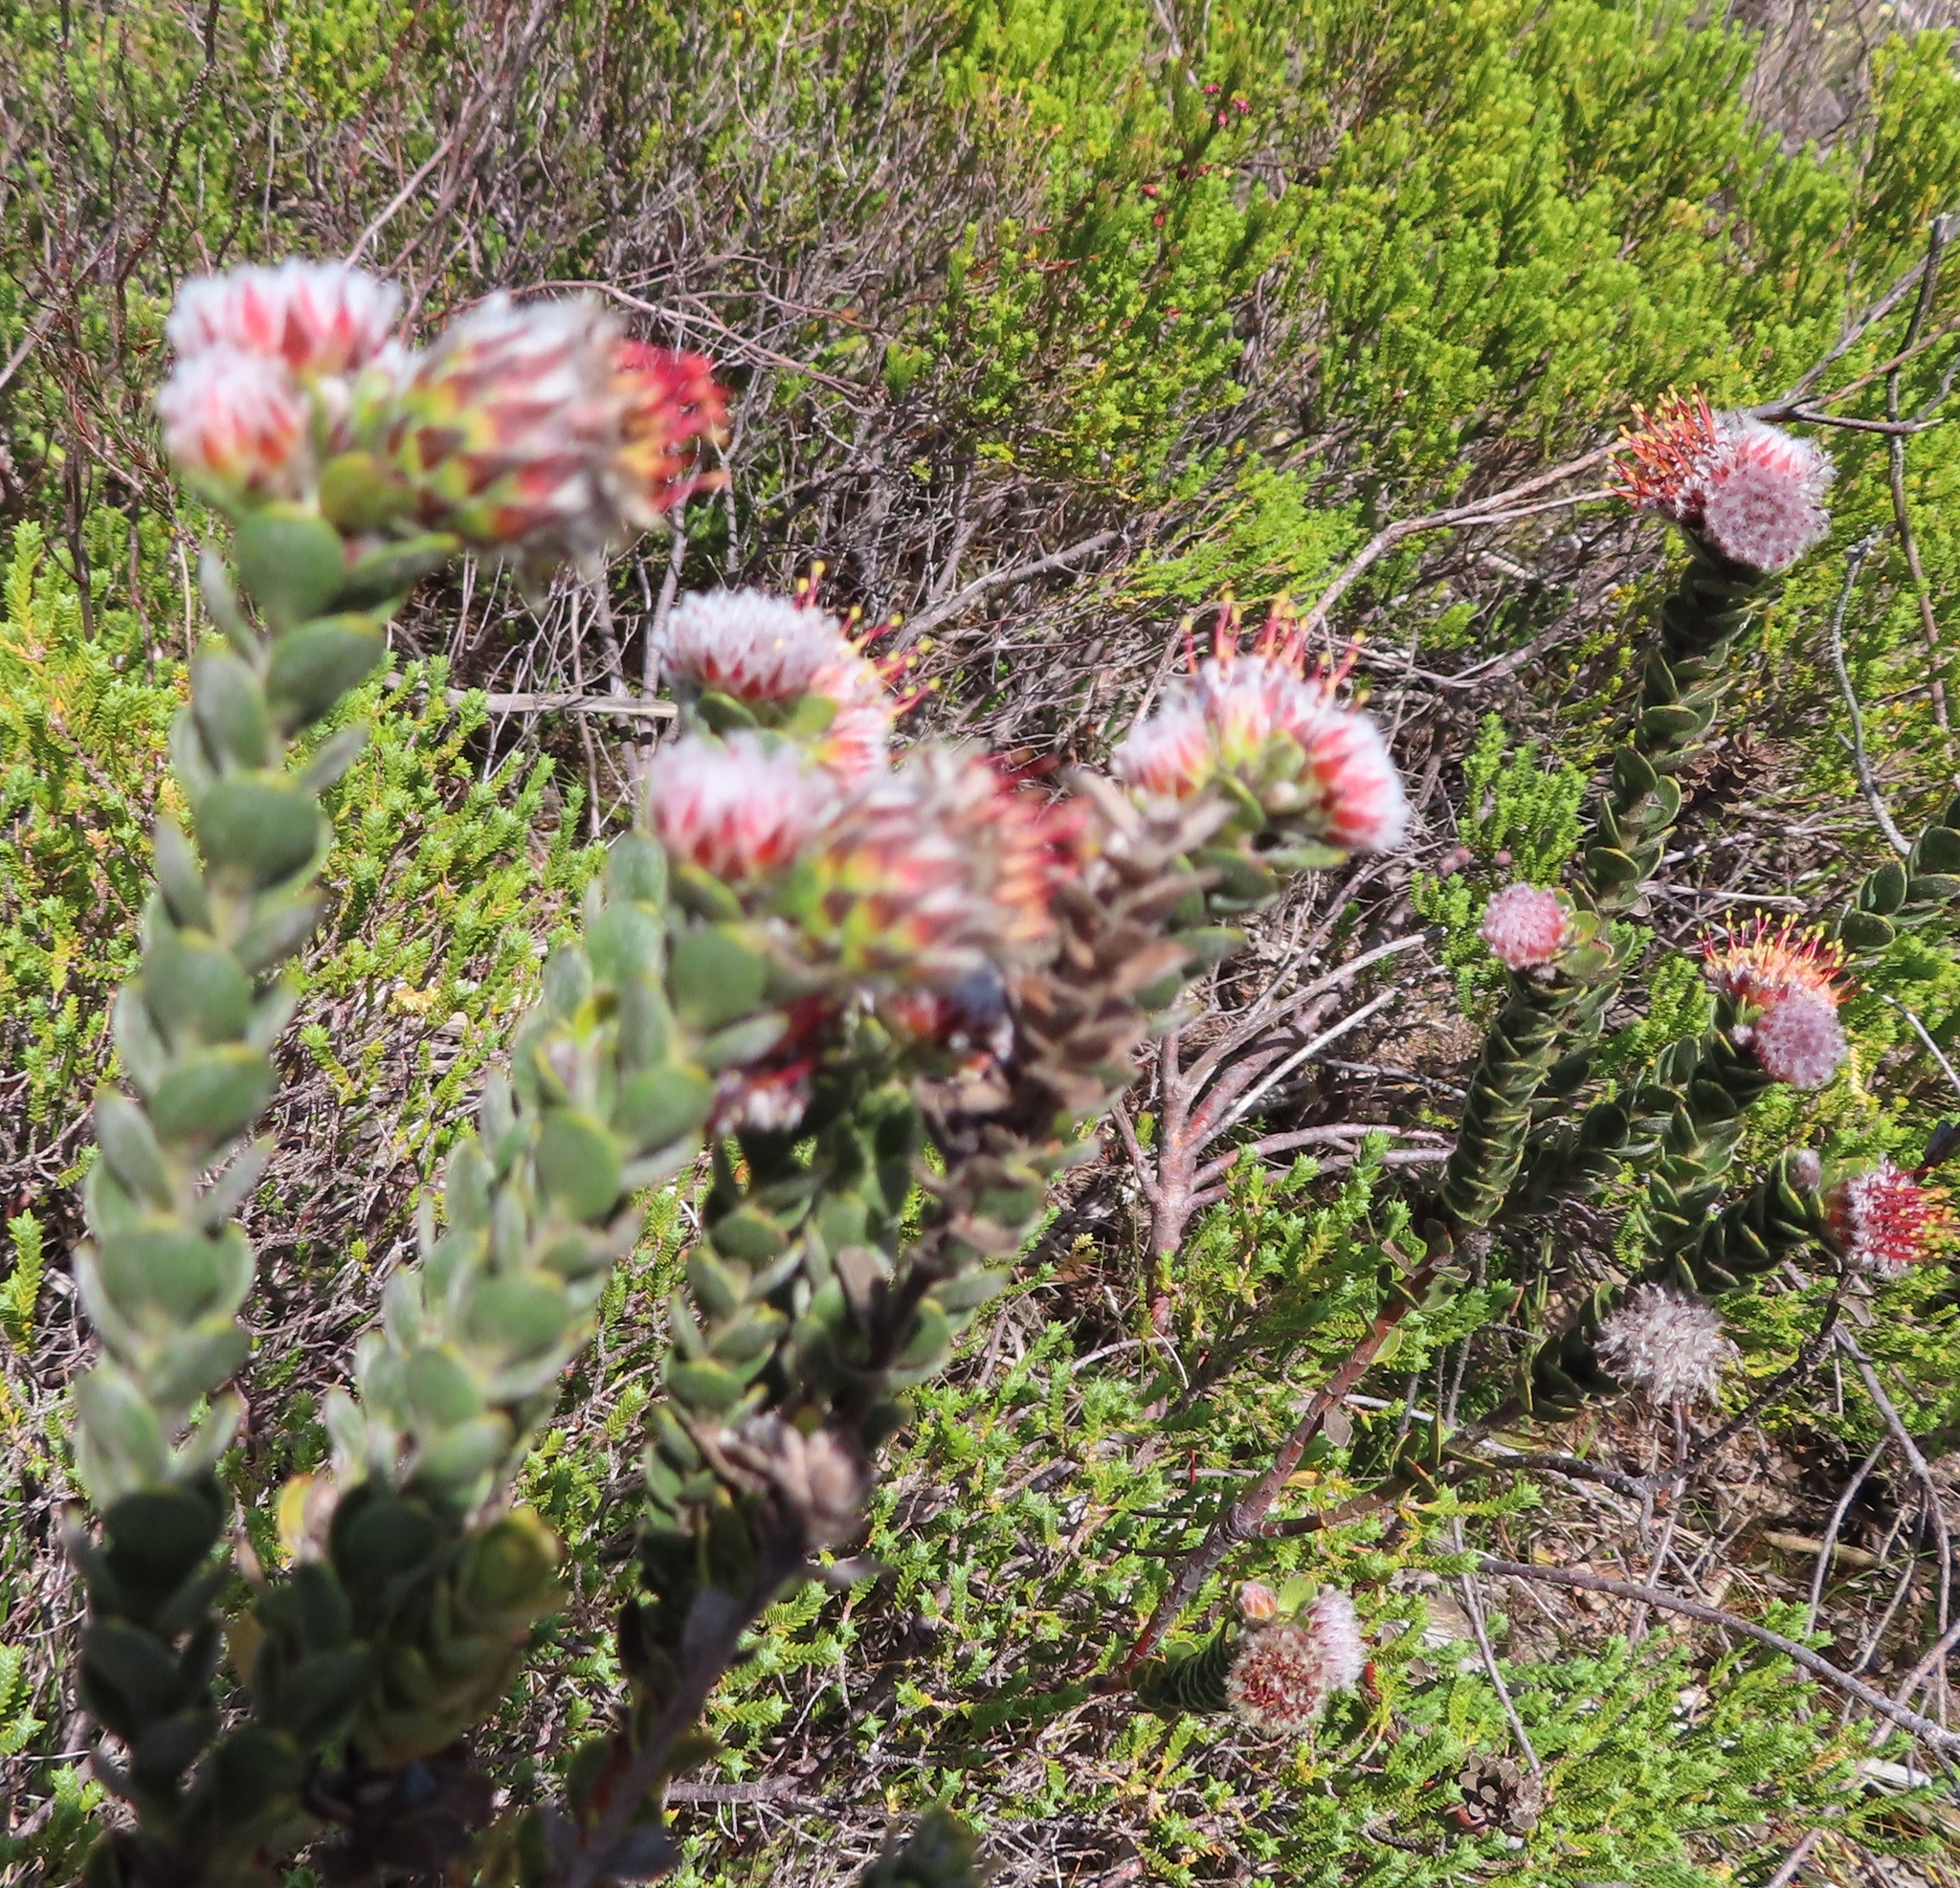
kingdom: Plantae
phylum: Tracheophyta
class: Magnoliopsida
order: Proteales
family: Proteaceae
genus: Leucospermum
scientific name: Leucospermum truncatulum
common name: Oval-leaf pincushion
